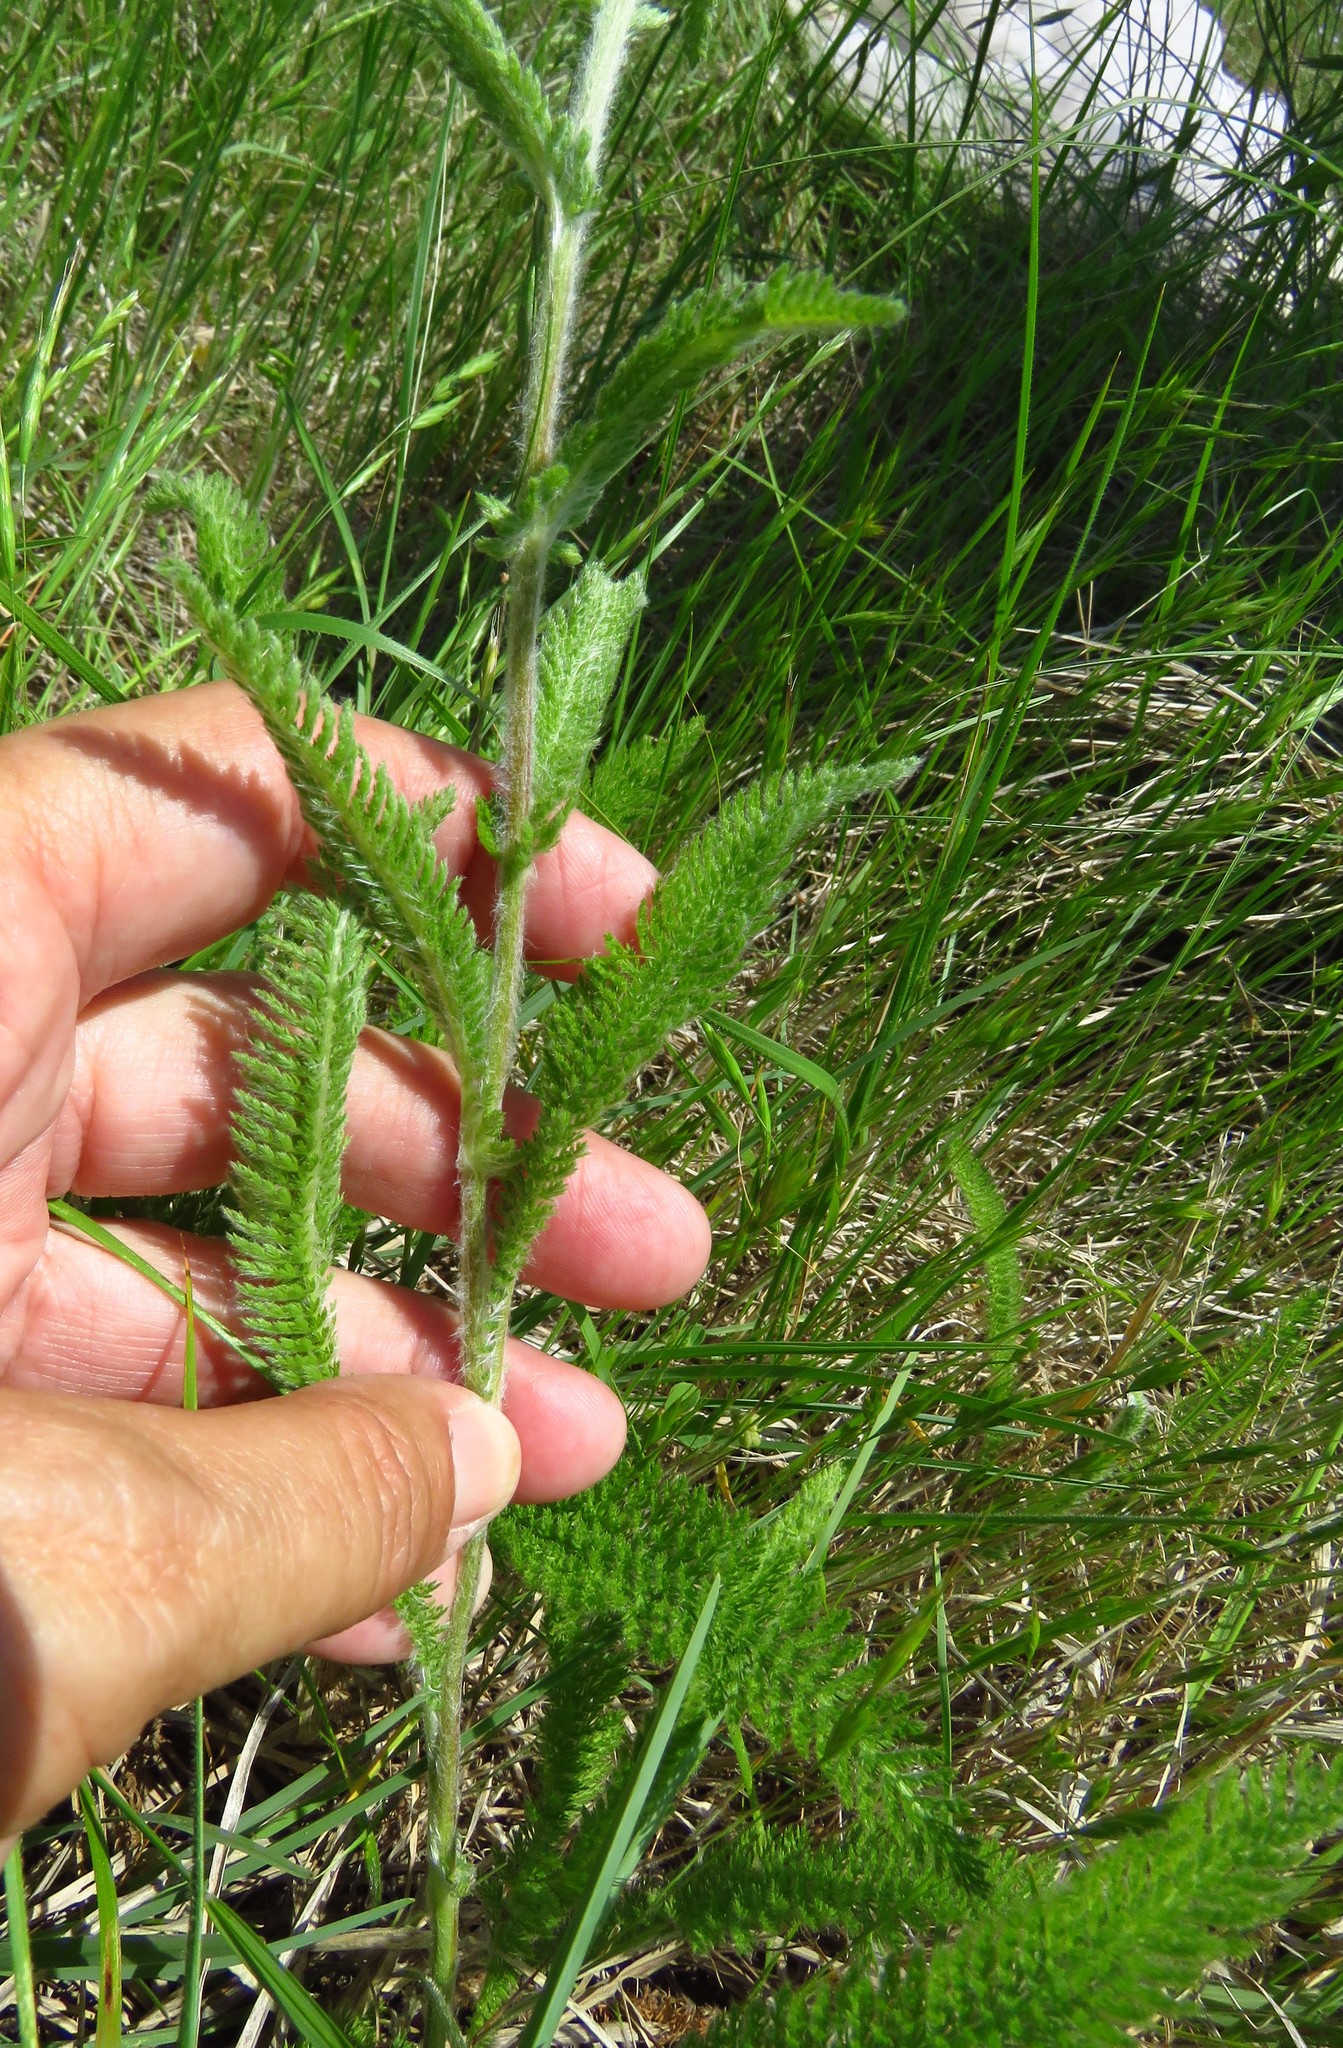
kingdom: Plantae
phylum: Tracheophyta
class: Magnoliopsida
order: Asterales
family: Asteraceae
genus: Achillea
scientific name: Achillea millefolium
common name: Yarrow
